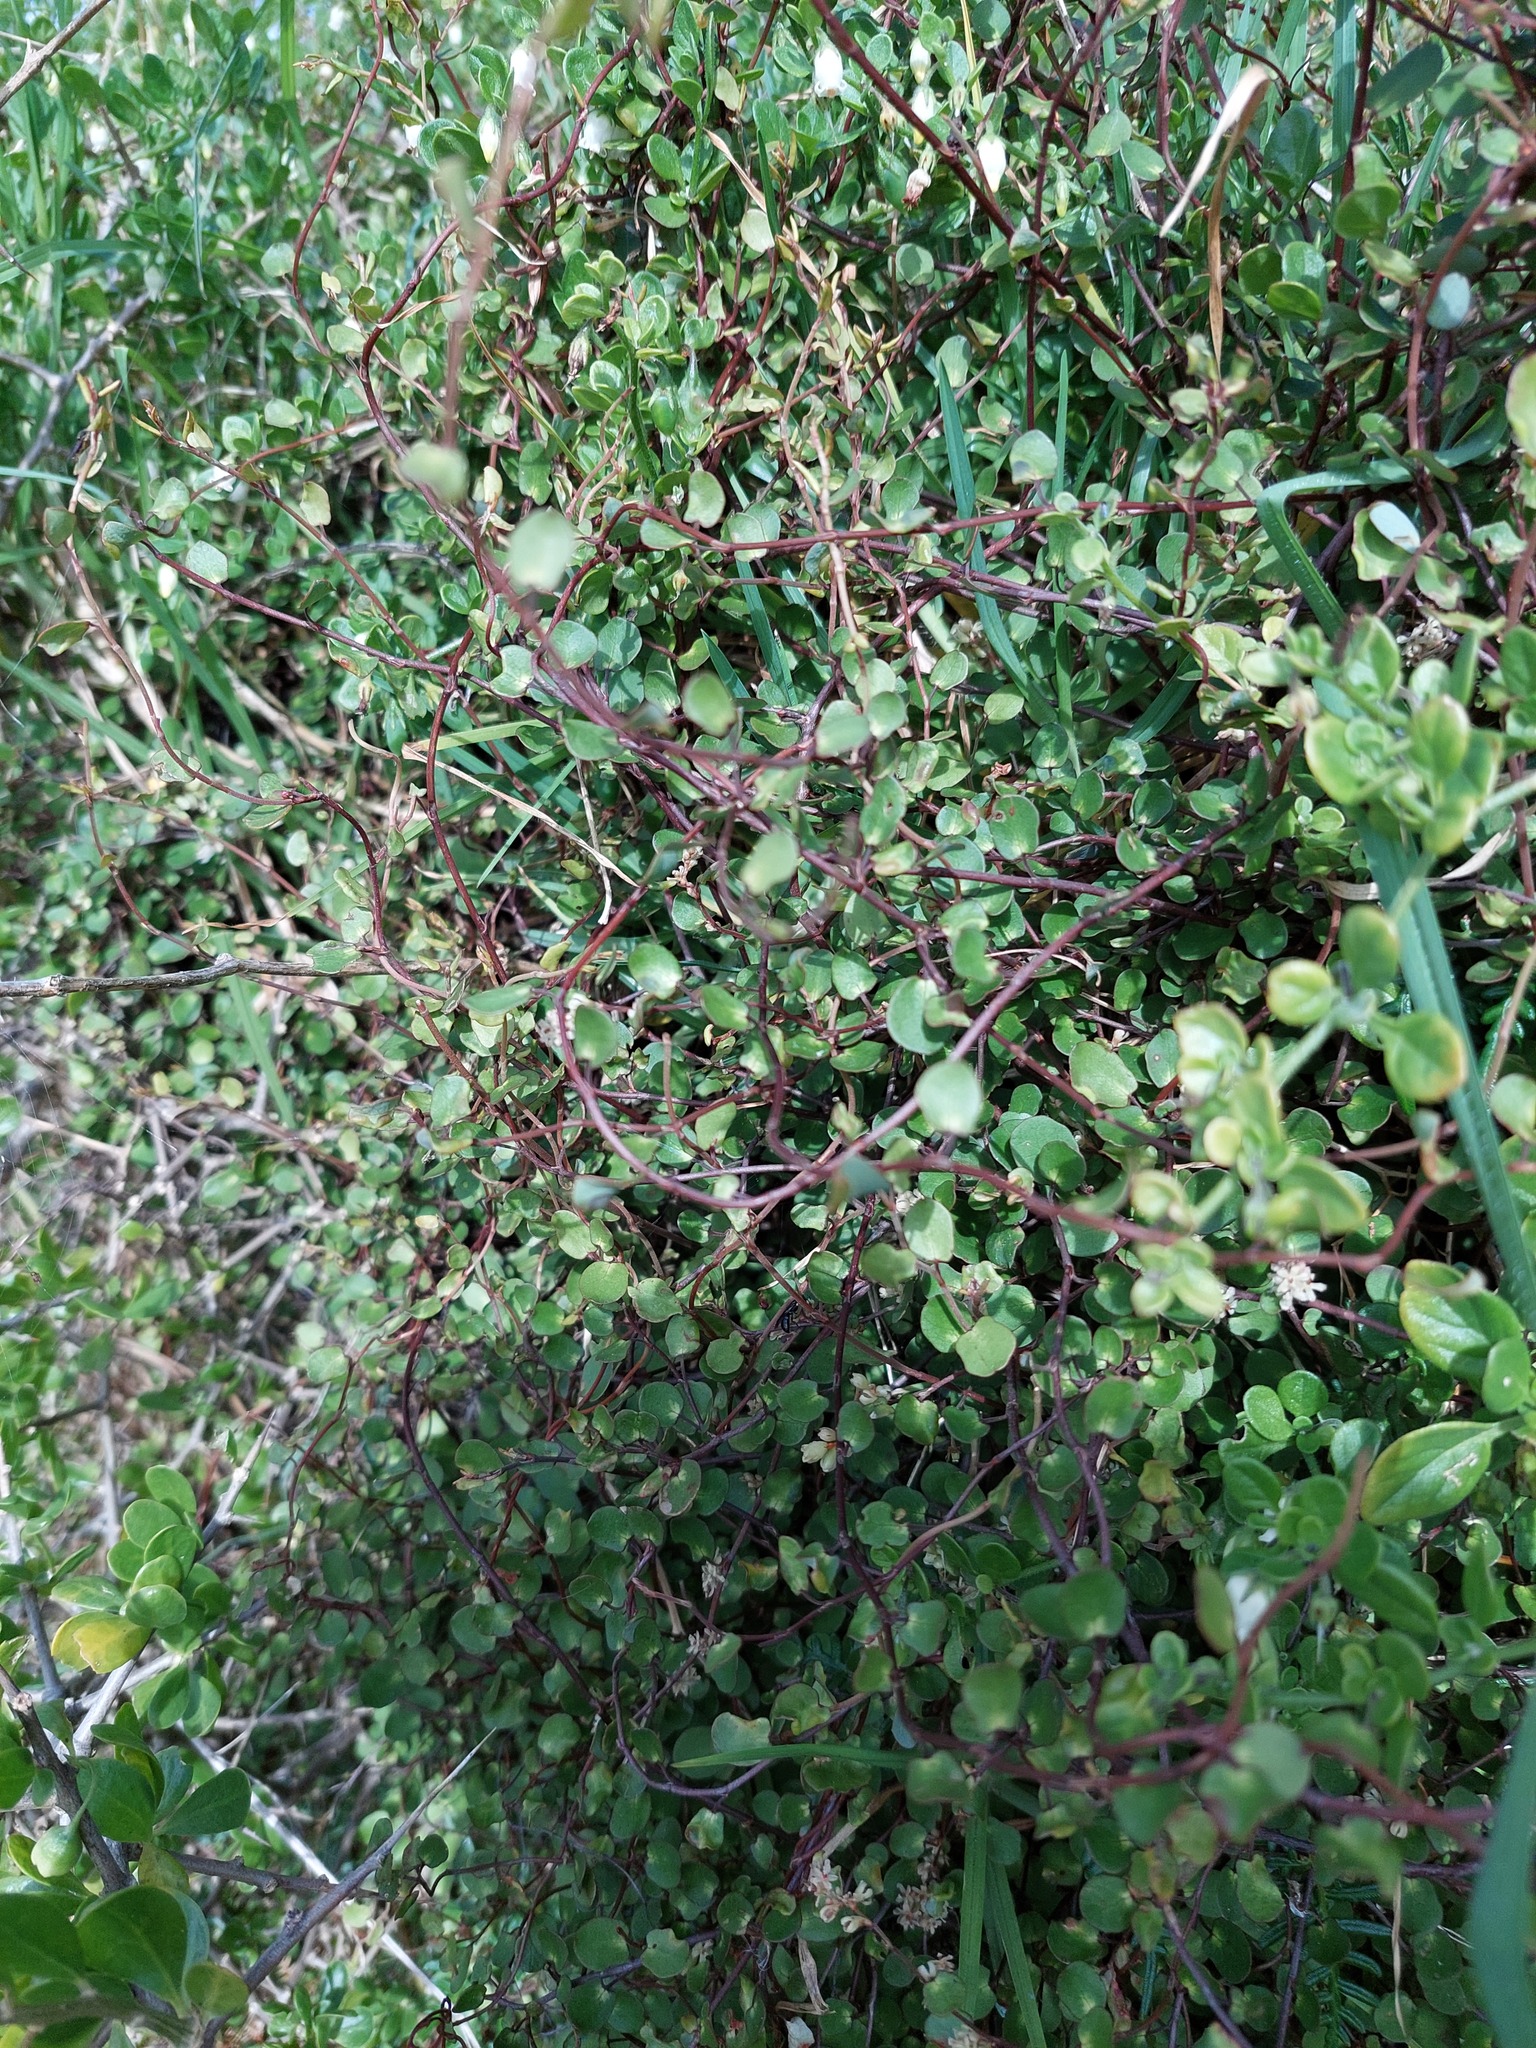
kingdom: Plantae
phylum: Tracheophyta
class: Magnoliopsida
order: Caryophyllales
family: Polygonaceae
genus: Muehlenbeckia
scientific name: Muehlenbeckia complexa
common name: Wireplant
